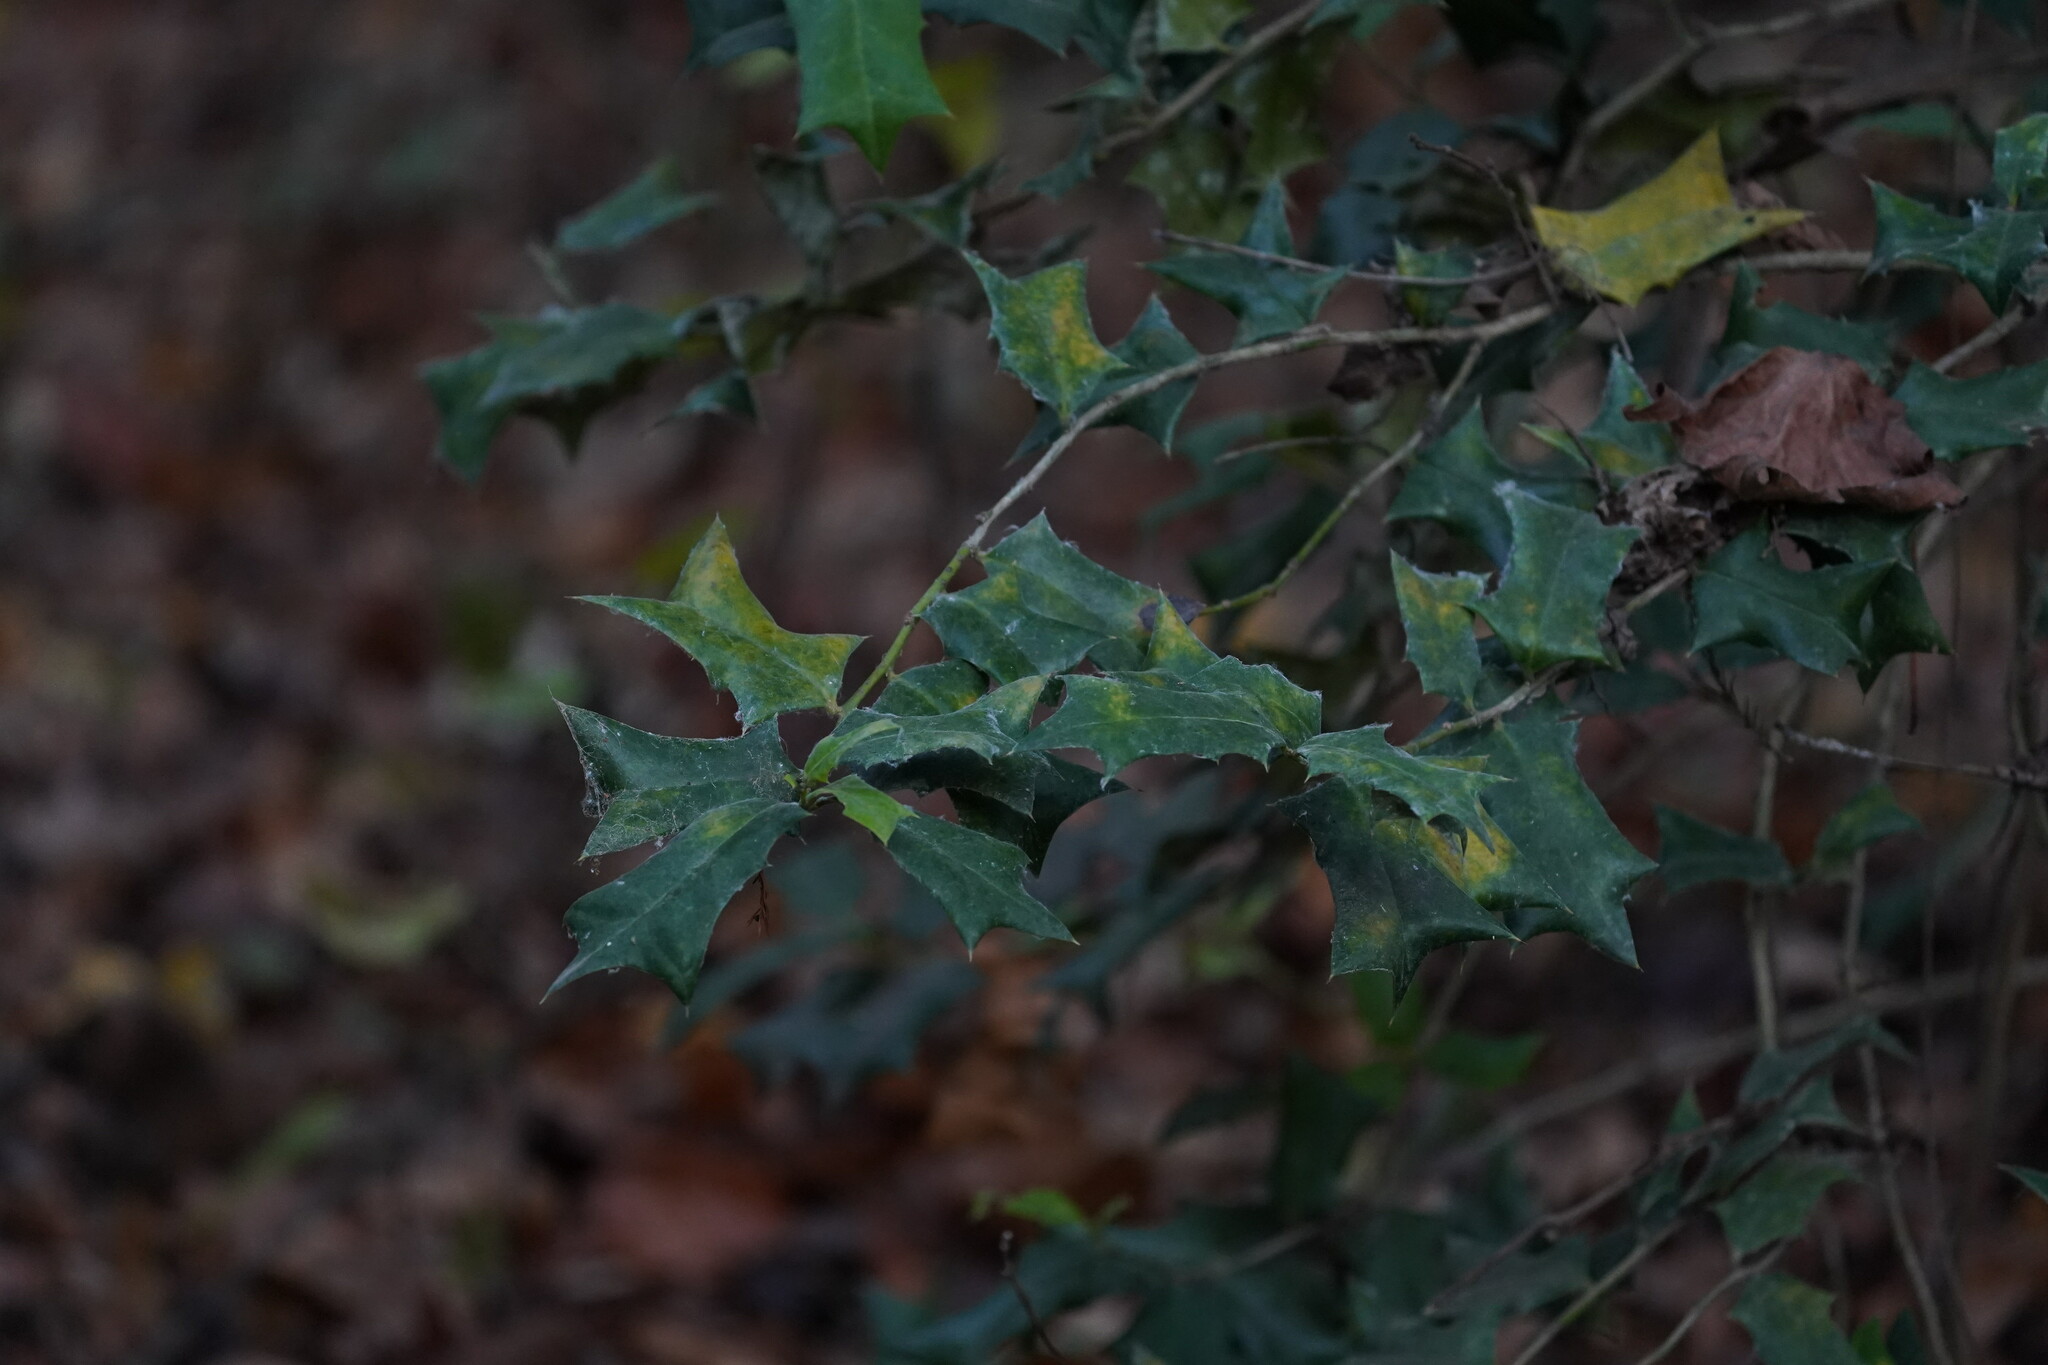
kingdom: Plantae
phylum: Tracheophyta
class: Magnoliopsida
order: Aquifoliales
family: Aquifoliaceae
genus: Ilex
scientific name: Ilex cornuta
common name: Chinese holly
